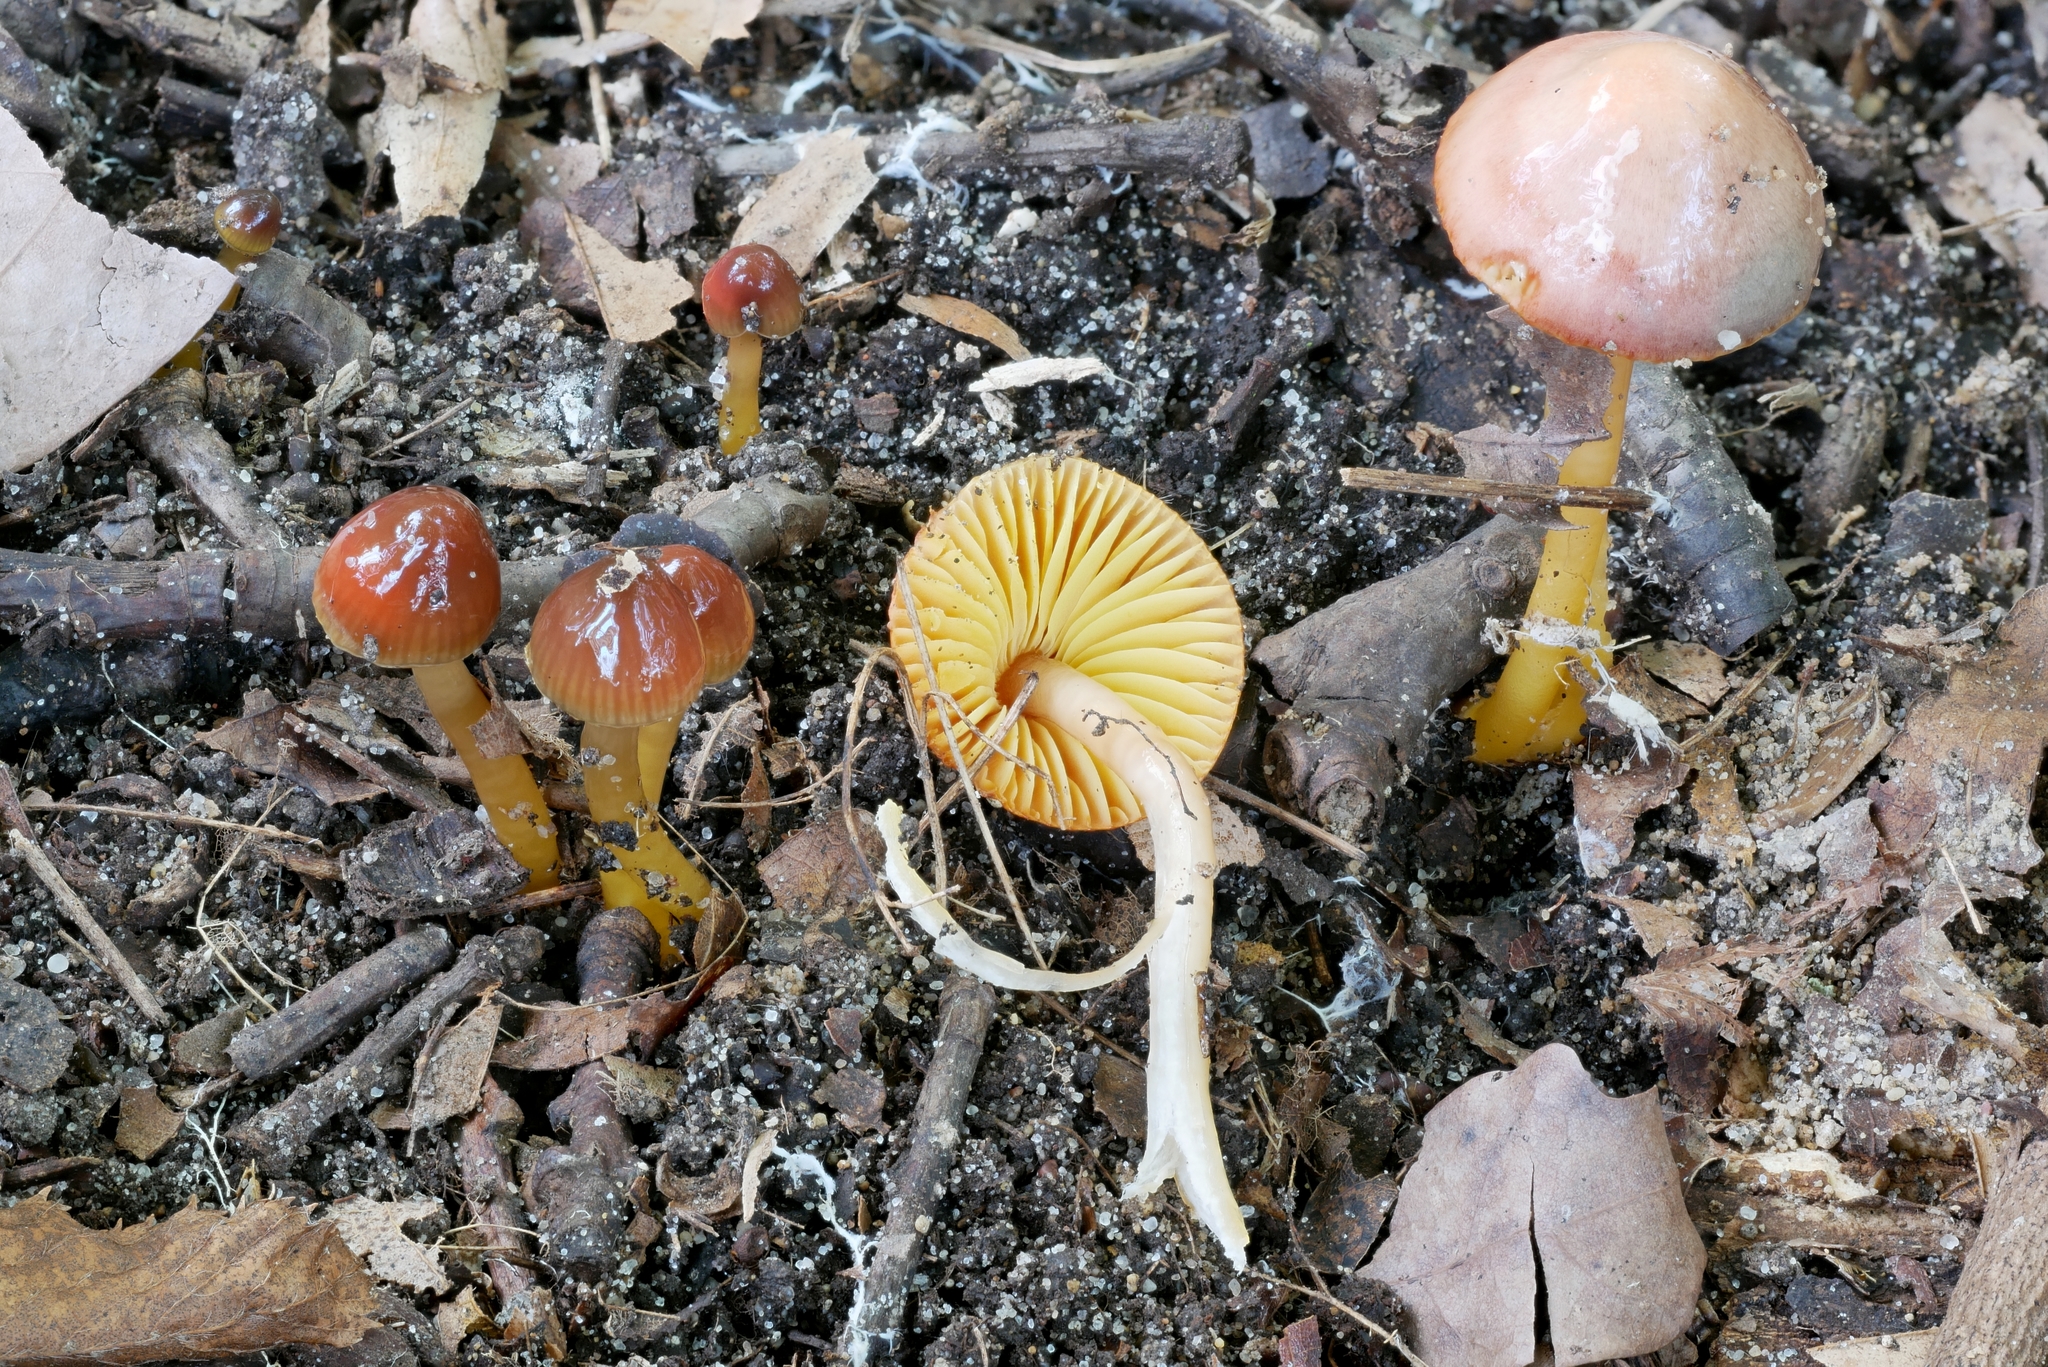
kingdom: Fungi
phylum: Basidiomycota
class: Agaricomycetes
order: Agaricales
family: Hygrophoraceae
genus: Gliophorus
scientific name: Gliophorus psittacinus
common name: Parrot wax-cap
